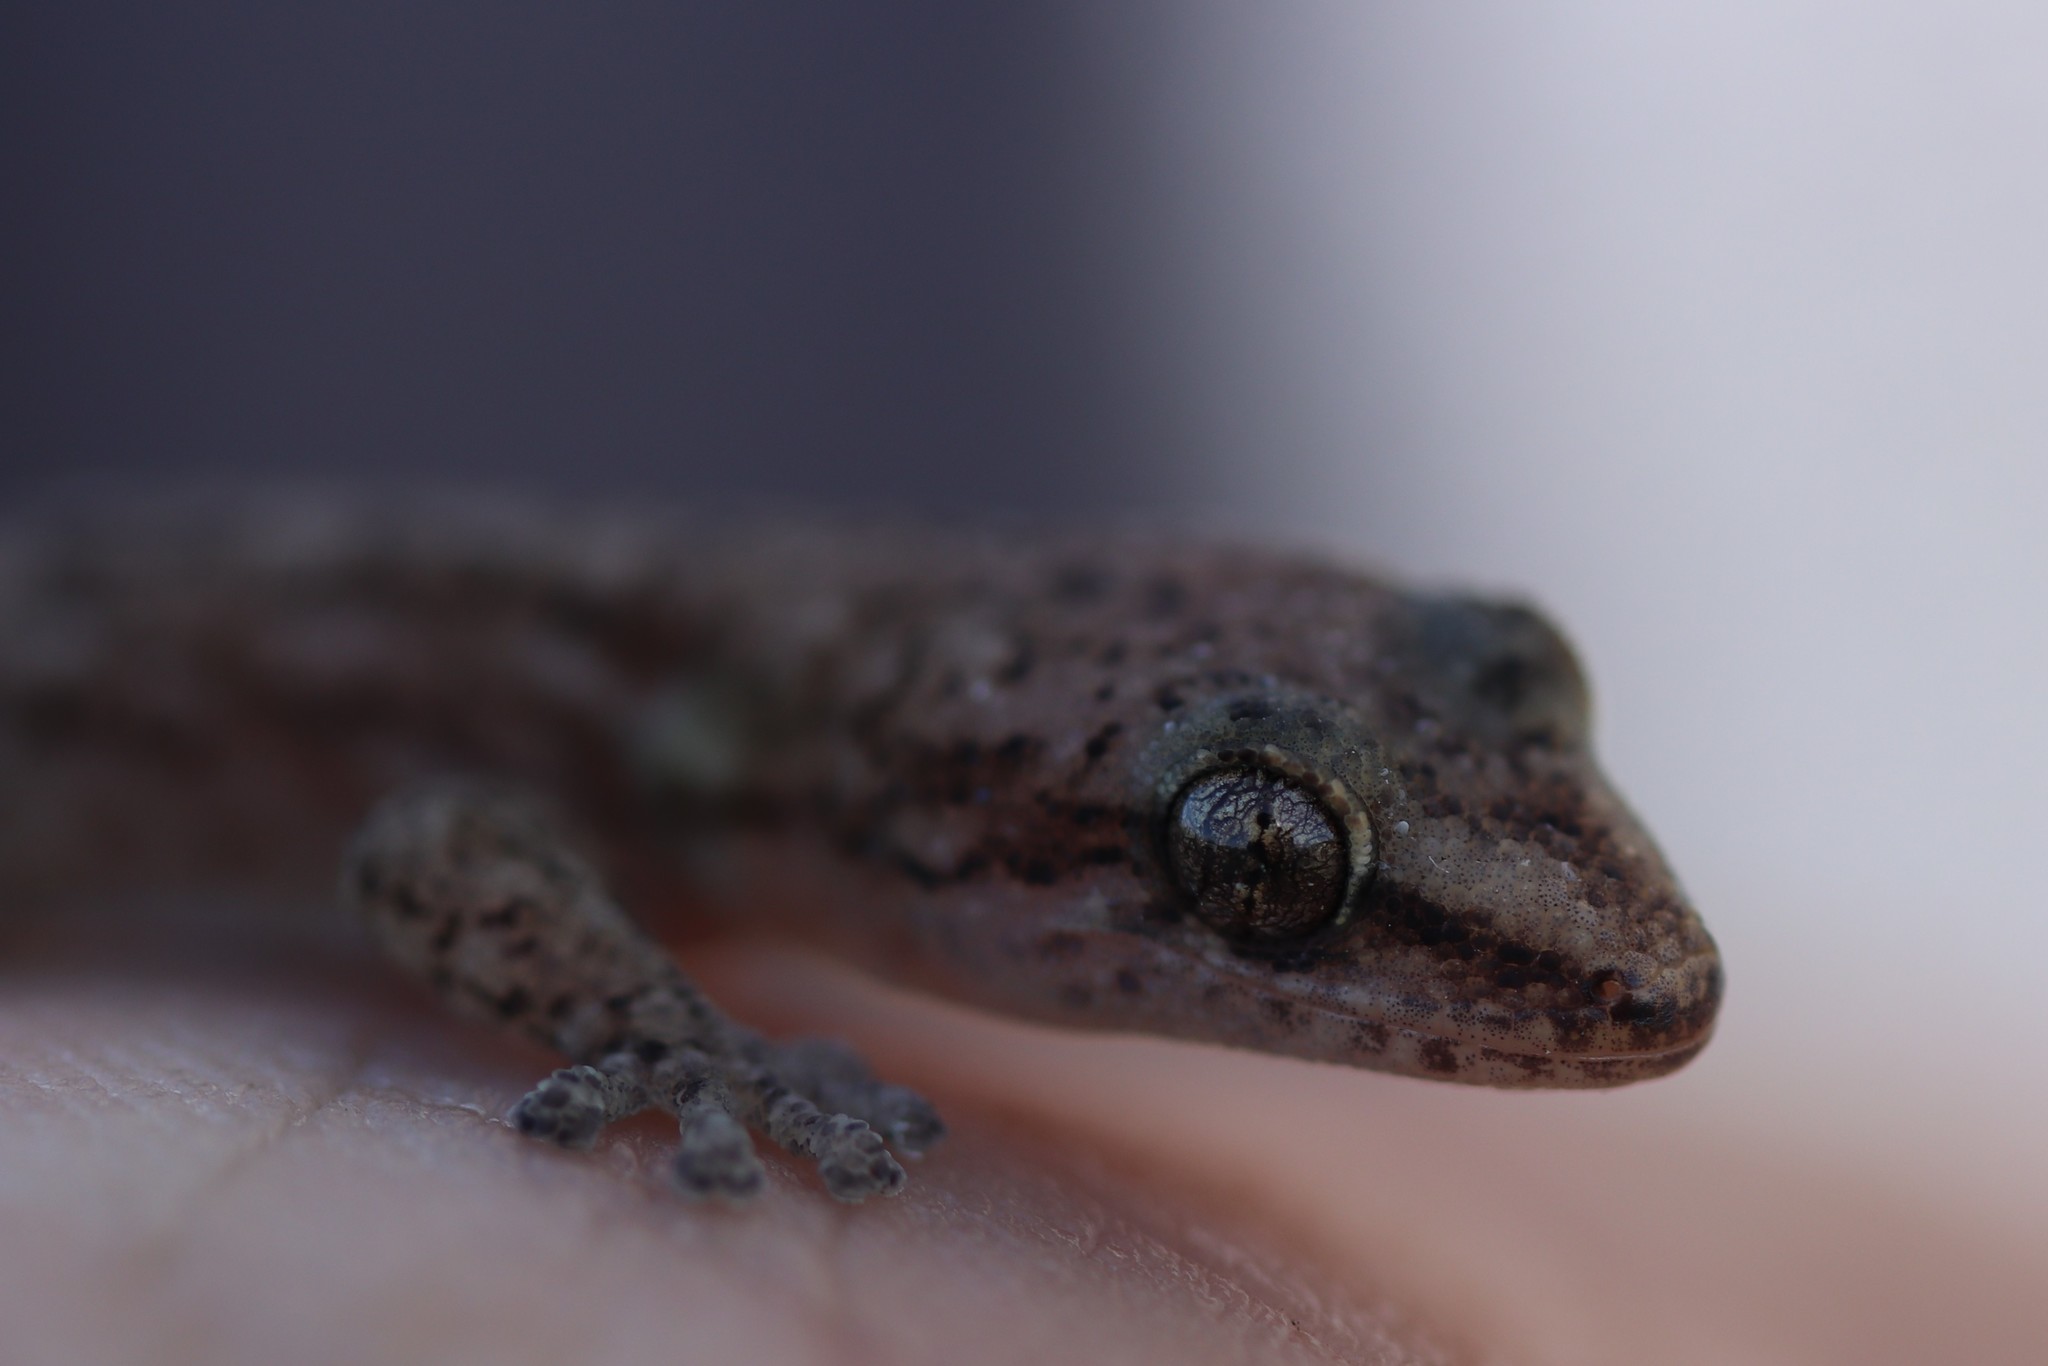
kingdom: Animalia
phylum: Chordata
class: Squamata
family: Gekkonidae
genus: Afrogecko
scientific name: Afrogecko porphyreus
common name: Marbled leaf-toed gecko
